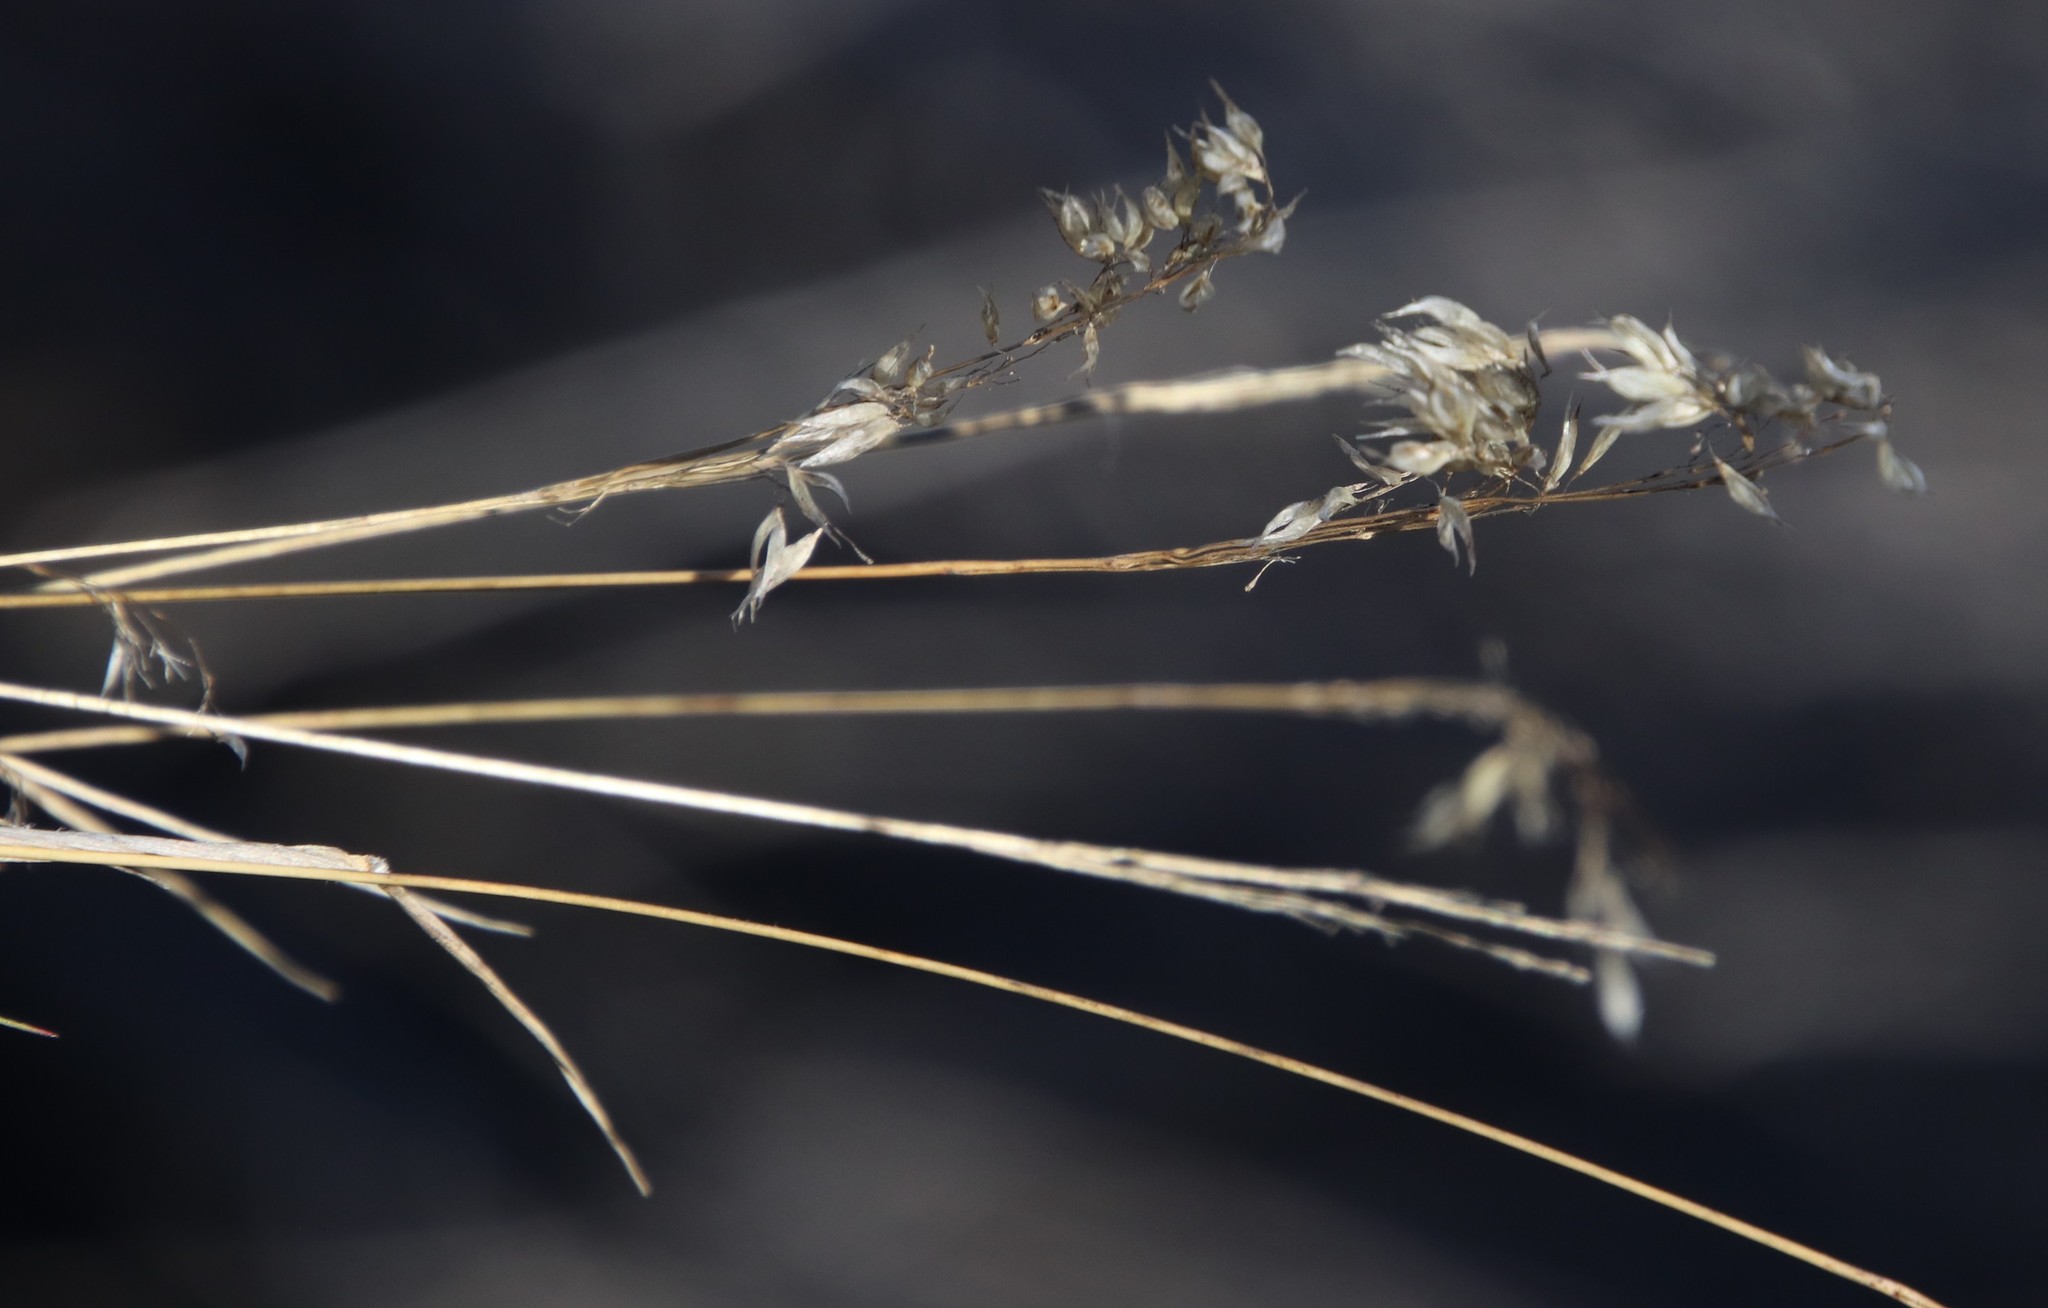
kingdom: Plantae
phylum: Tracheophyta
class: Liliopsida
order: Poales
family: Poaceae
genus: Pentameris
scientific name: Pentameris pallida
